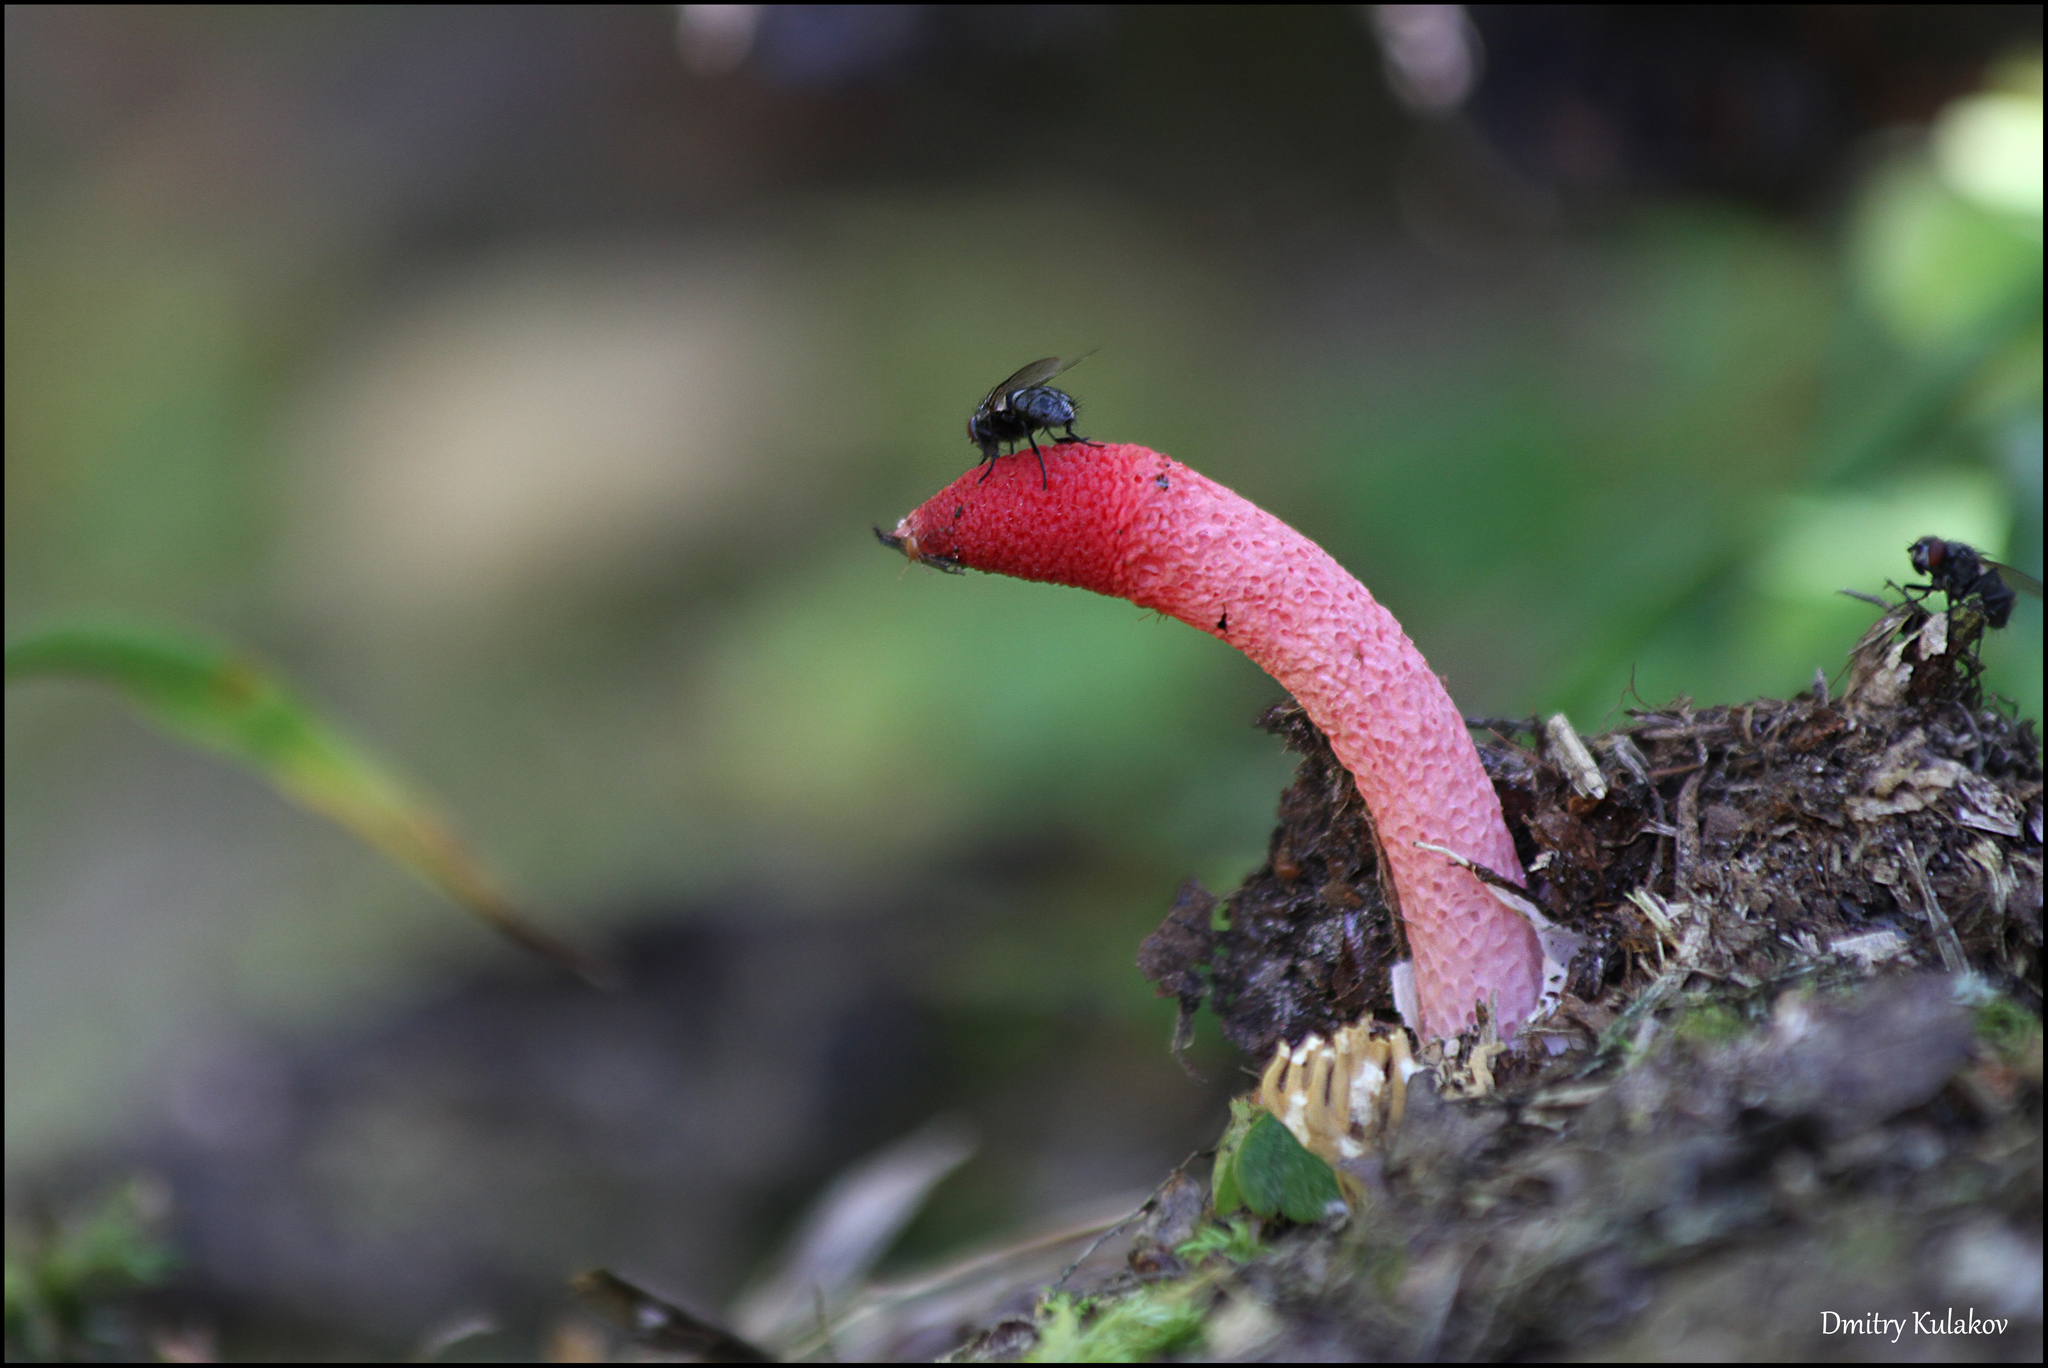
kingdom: Fungi
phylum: Basidiomycota
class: Agaricomycetes
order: Phallales
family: Phallaceae
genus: Mutinus
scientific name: Mutinus ravenelii
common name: Red stinkhorn
